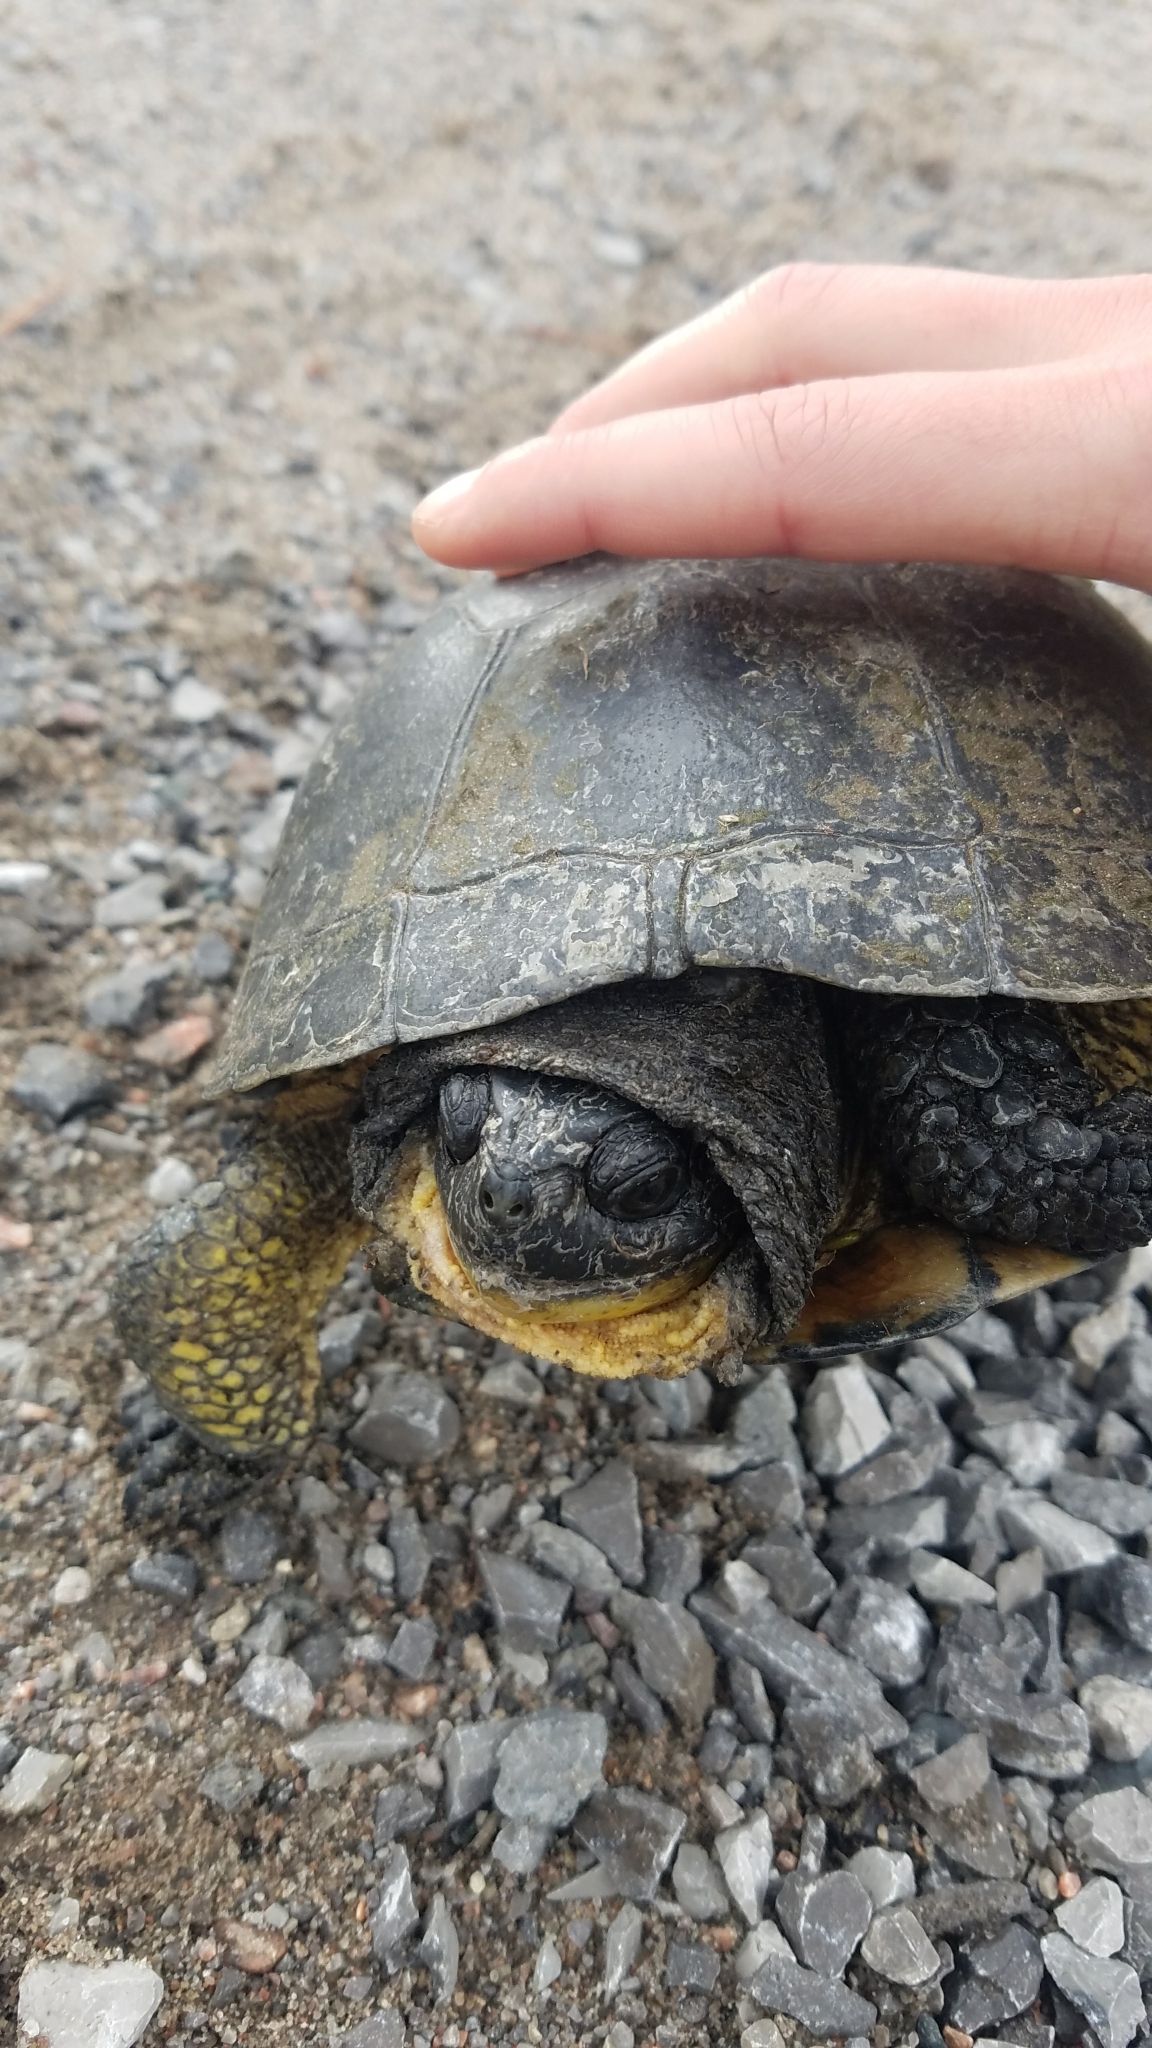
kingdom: Animalia
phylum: Chordata
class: Testudines
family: Emydidae
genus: Emys
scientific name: Emys blandingii
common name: Blanding's turtle
